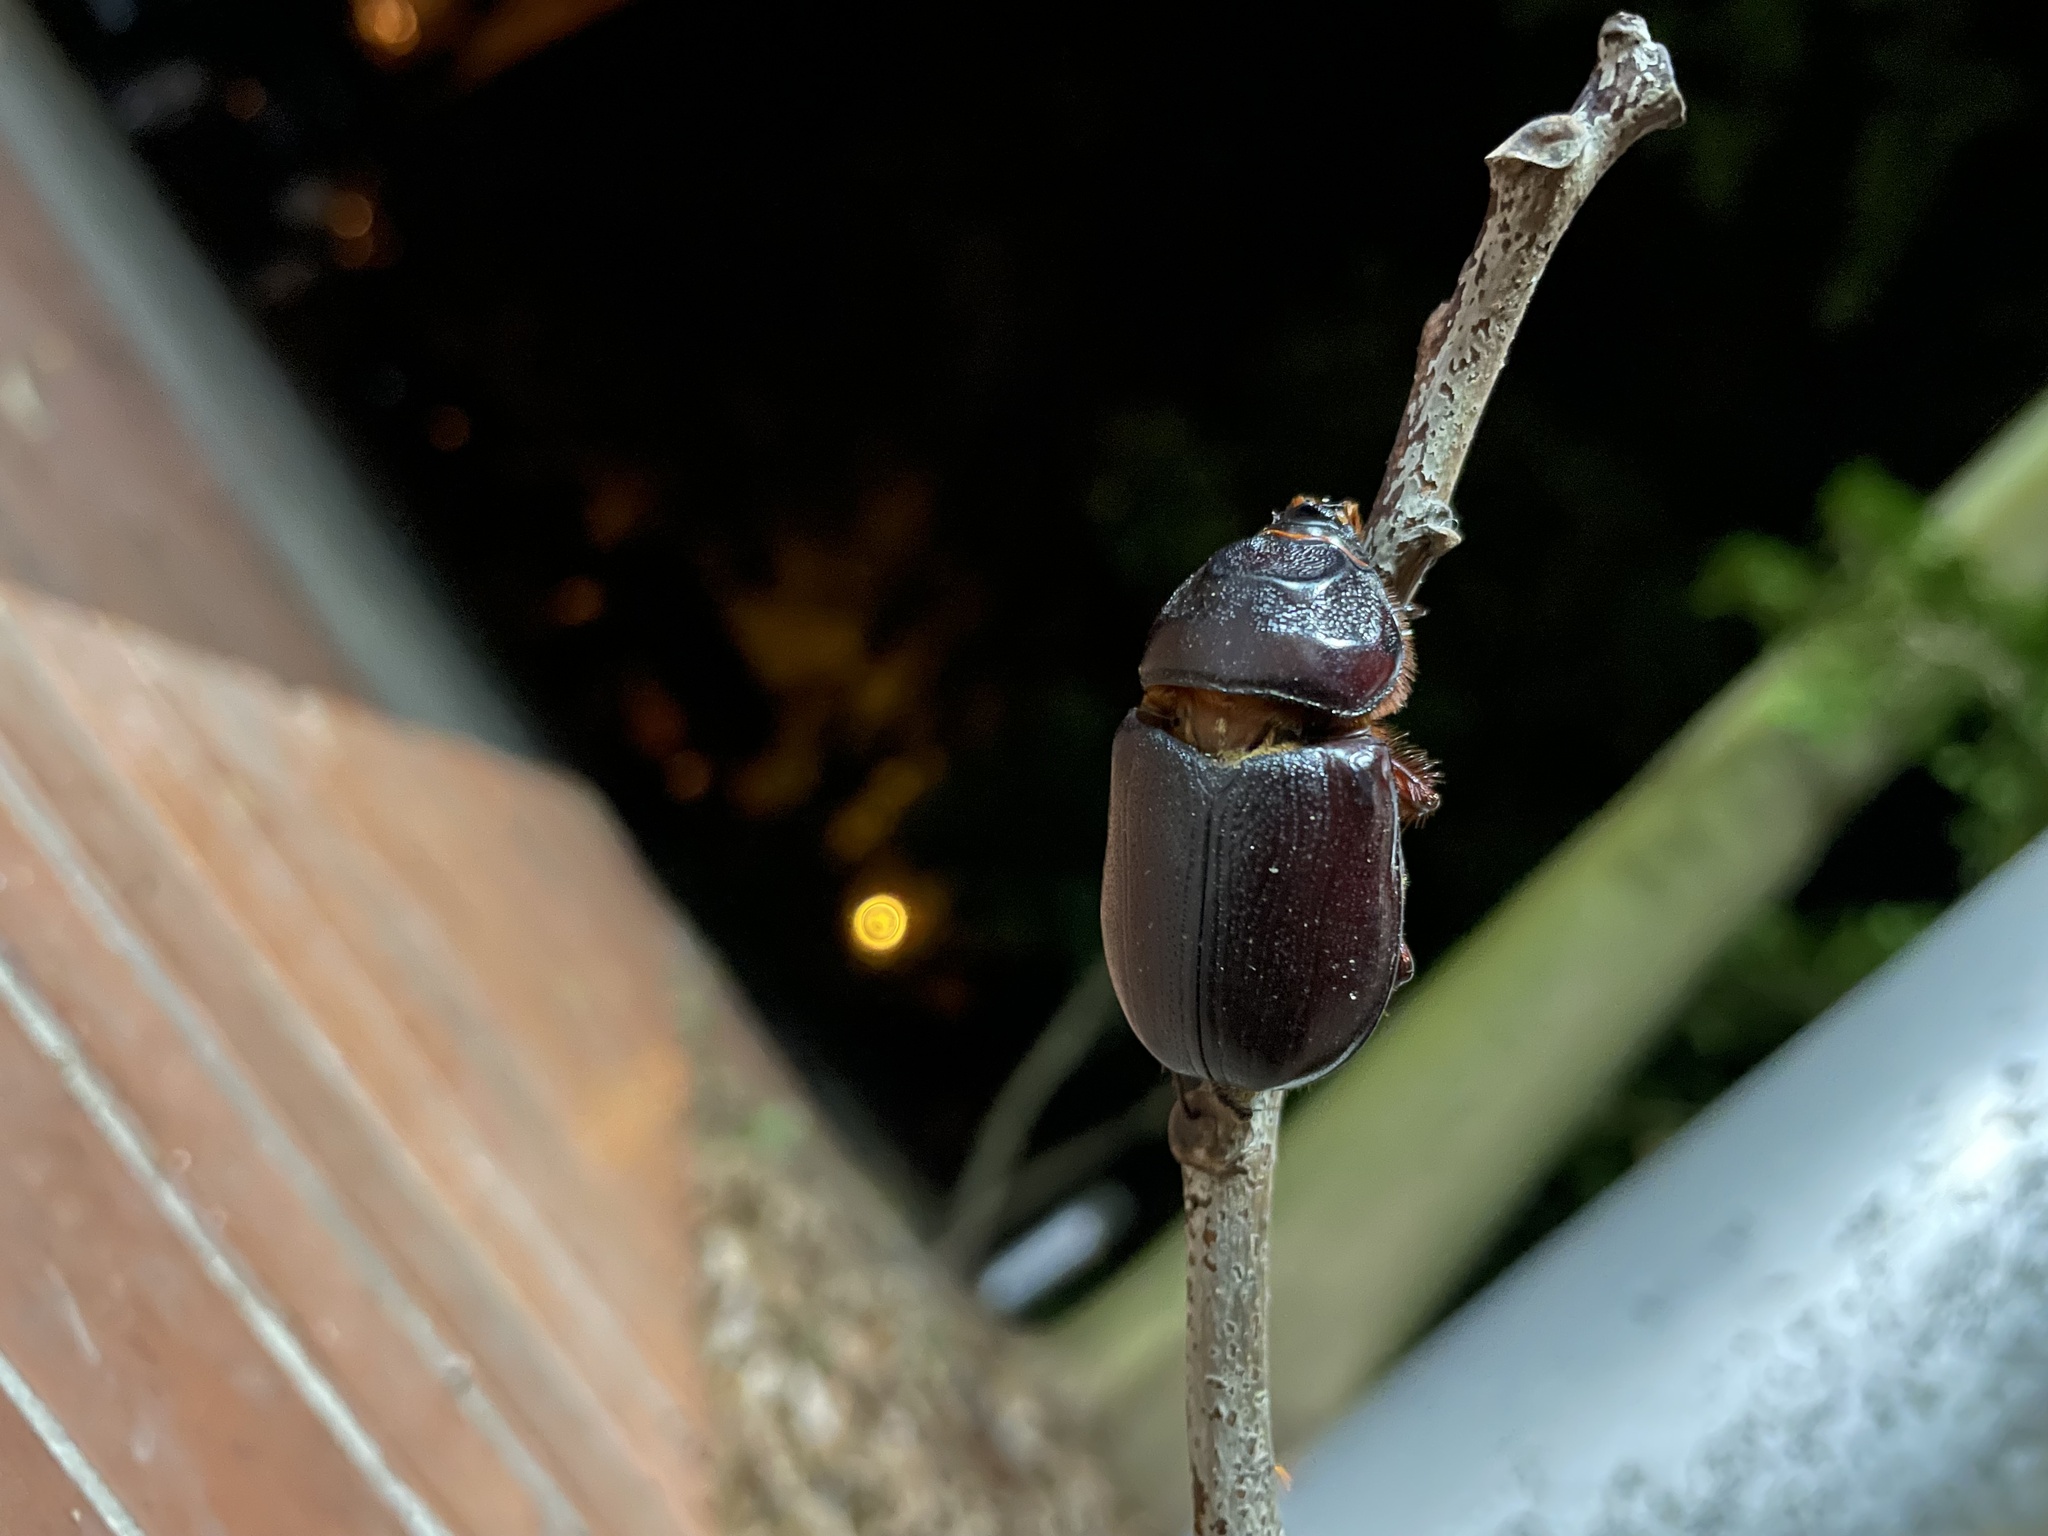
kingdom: Animalia
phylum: Arthropoda
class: Insecta
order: Coleoptera
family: Scarabaeidae
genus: Oryctes
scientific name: Oryctes rhinoceros
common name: Coconut rhinoceros beetle
